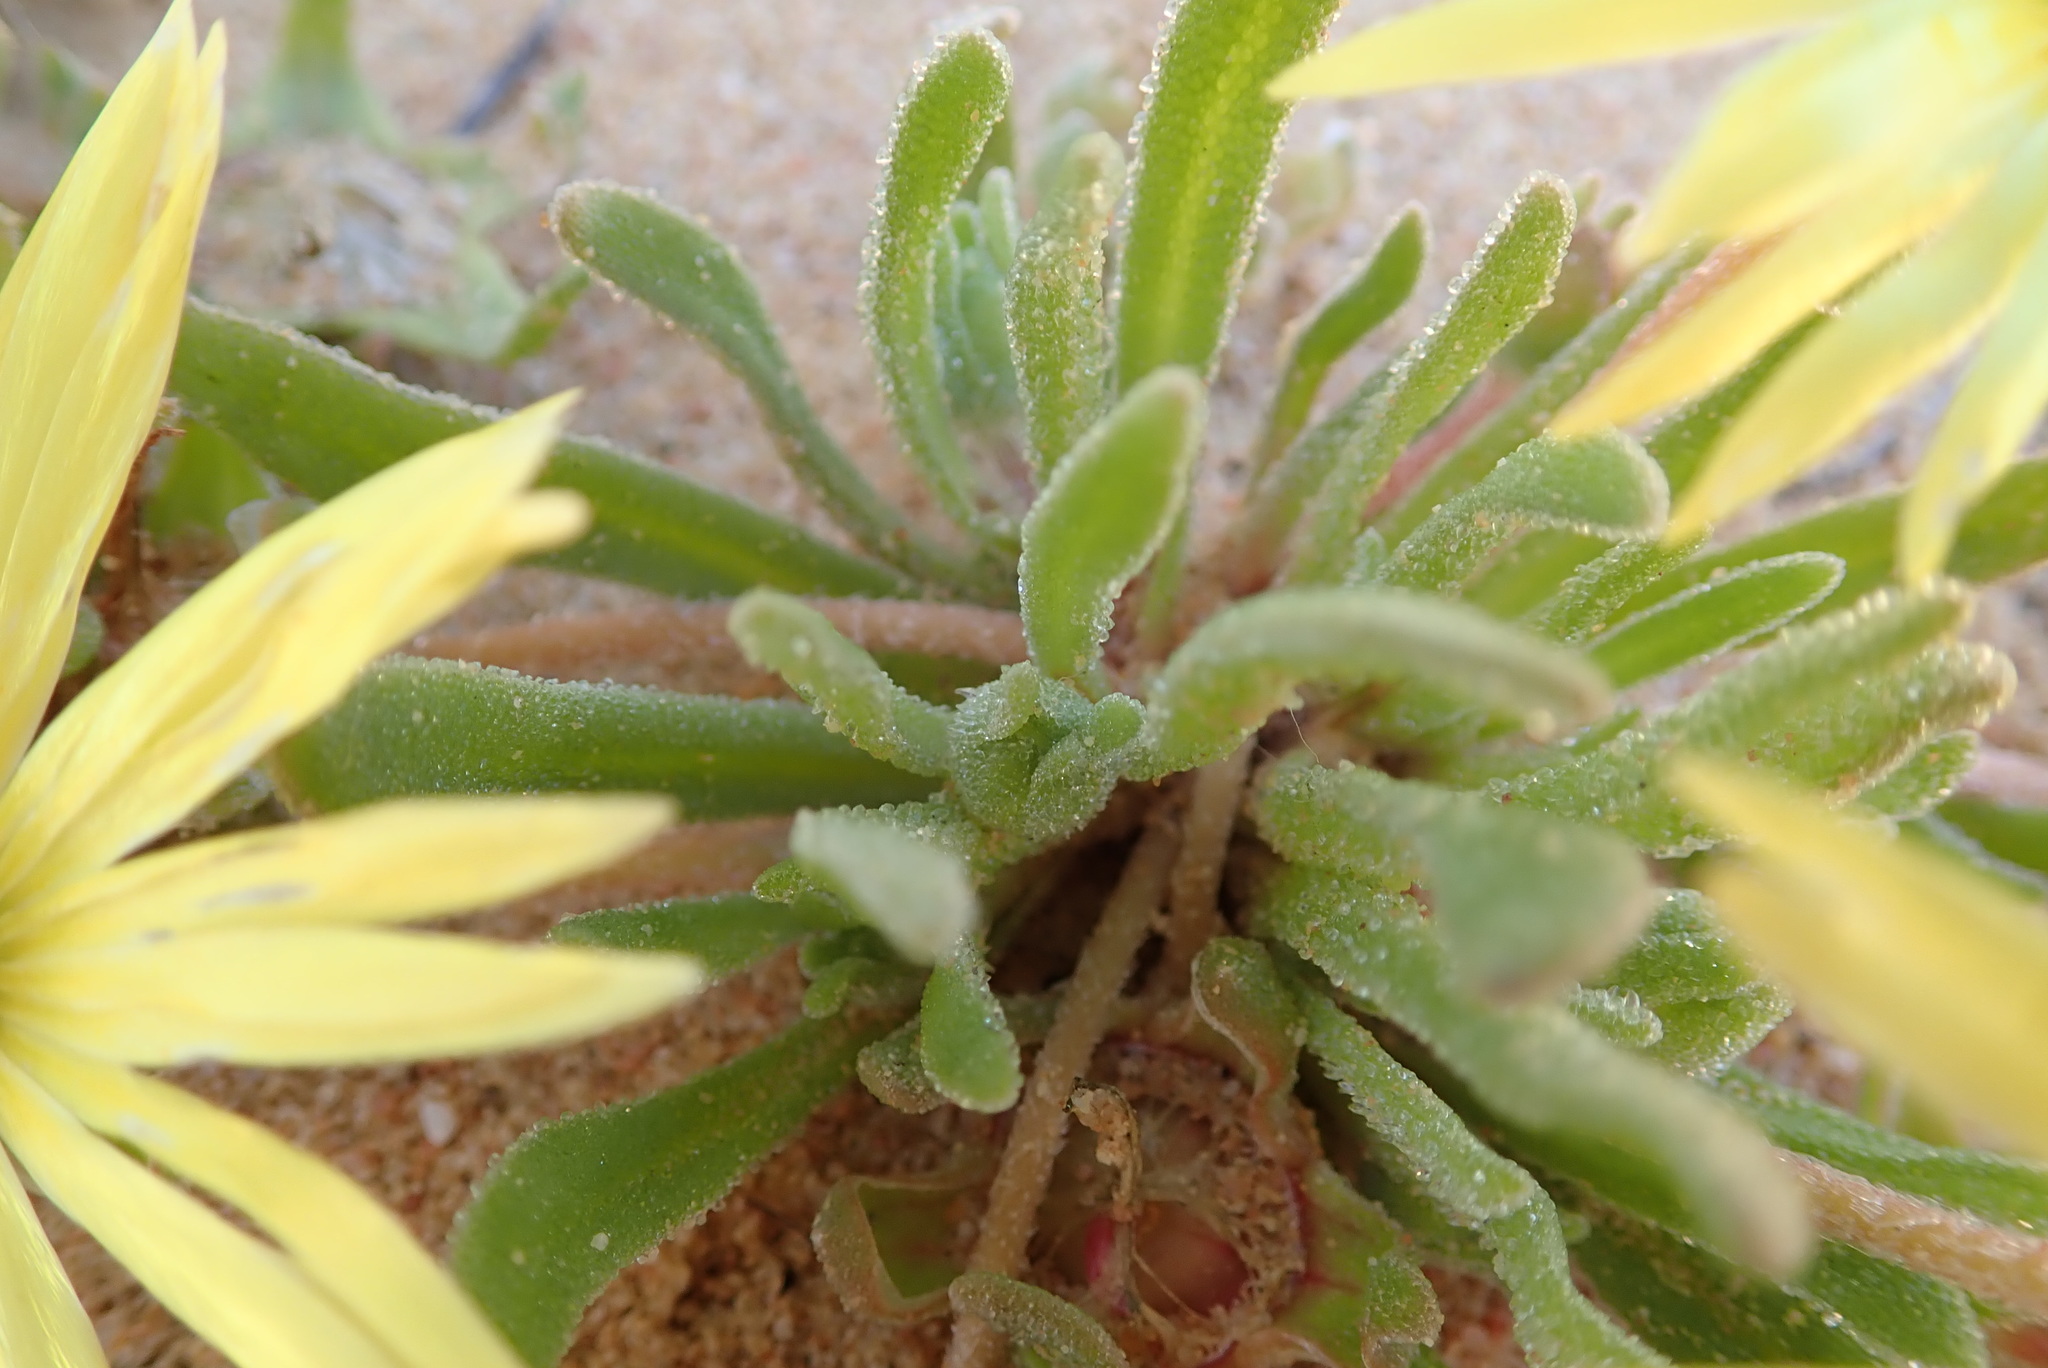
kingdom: Plantae
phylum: Tracheophyta
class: Magnoliopsida
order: Caryophyllales
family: Aizoaceae
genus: Cleretum
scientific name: Cleretum bellidiforme
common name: Livingstone daisy
